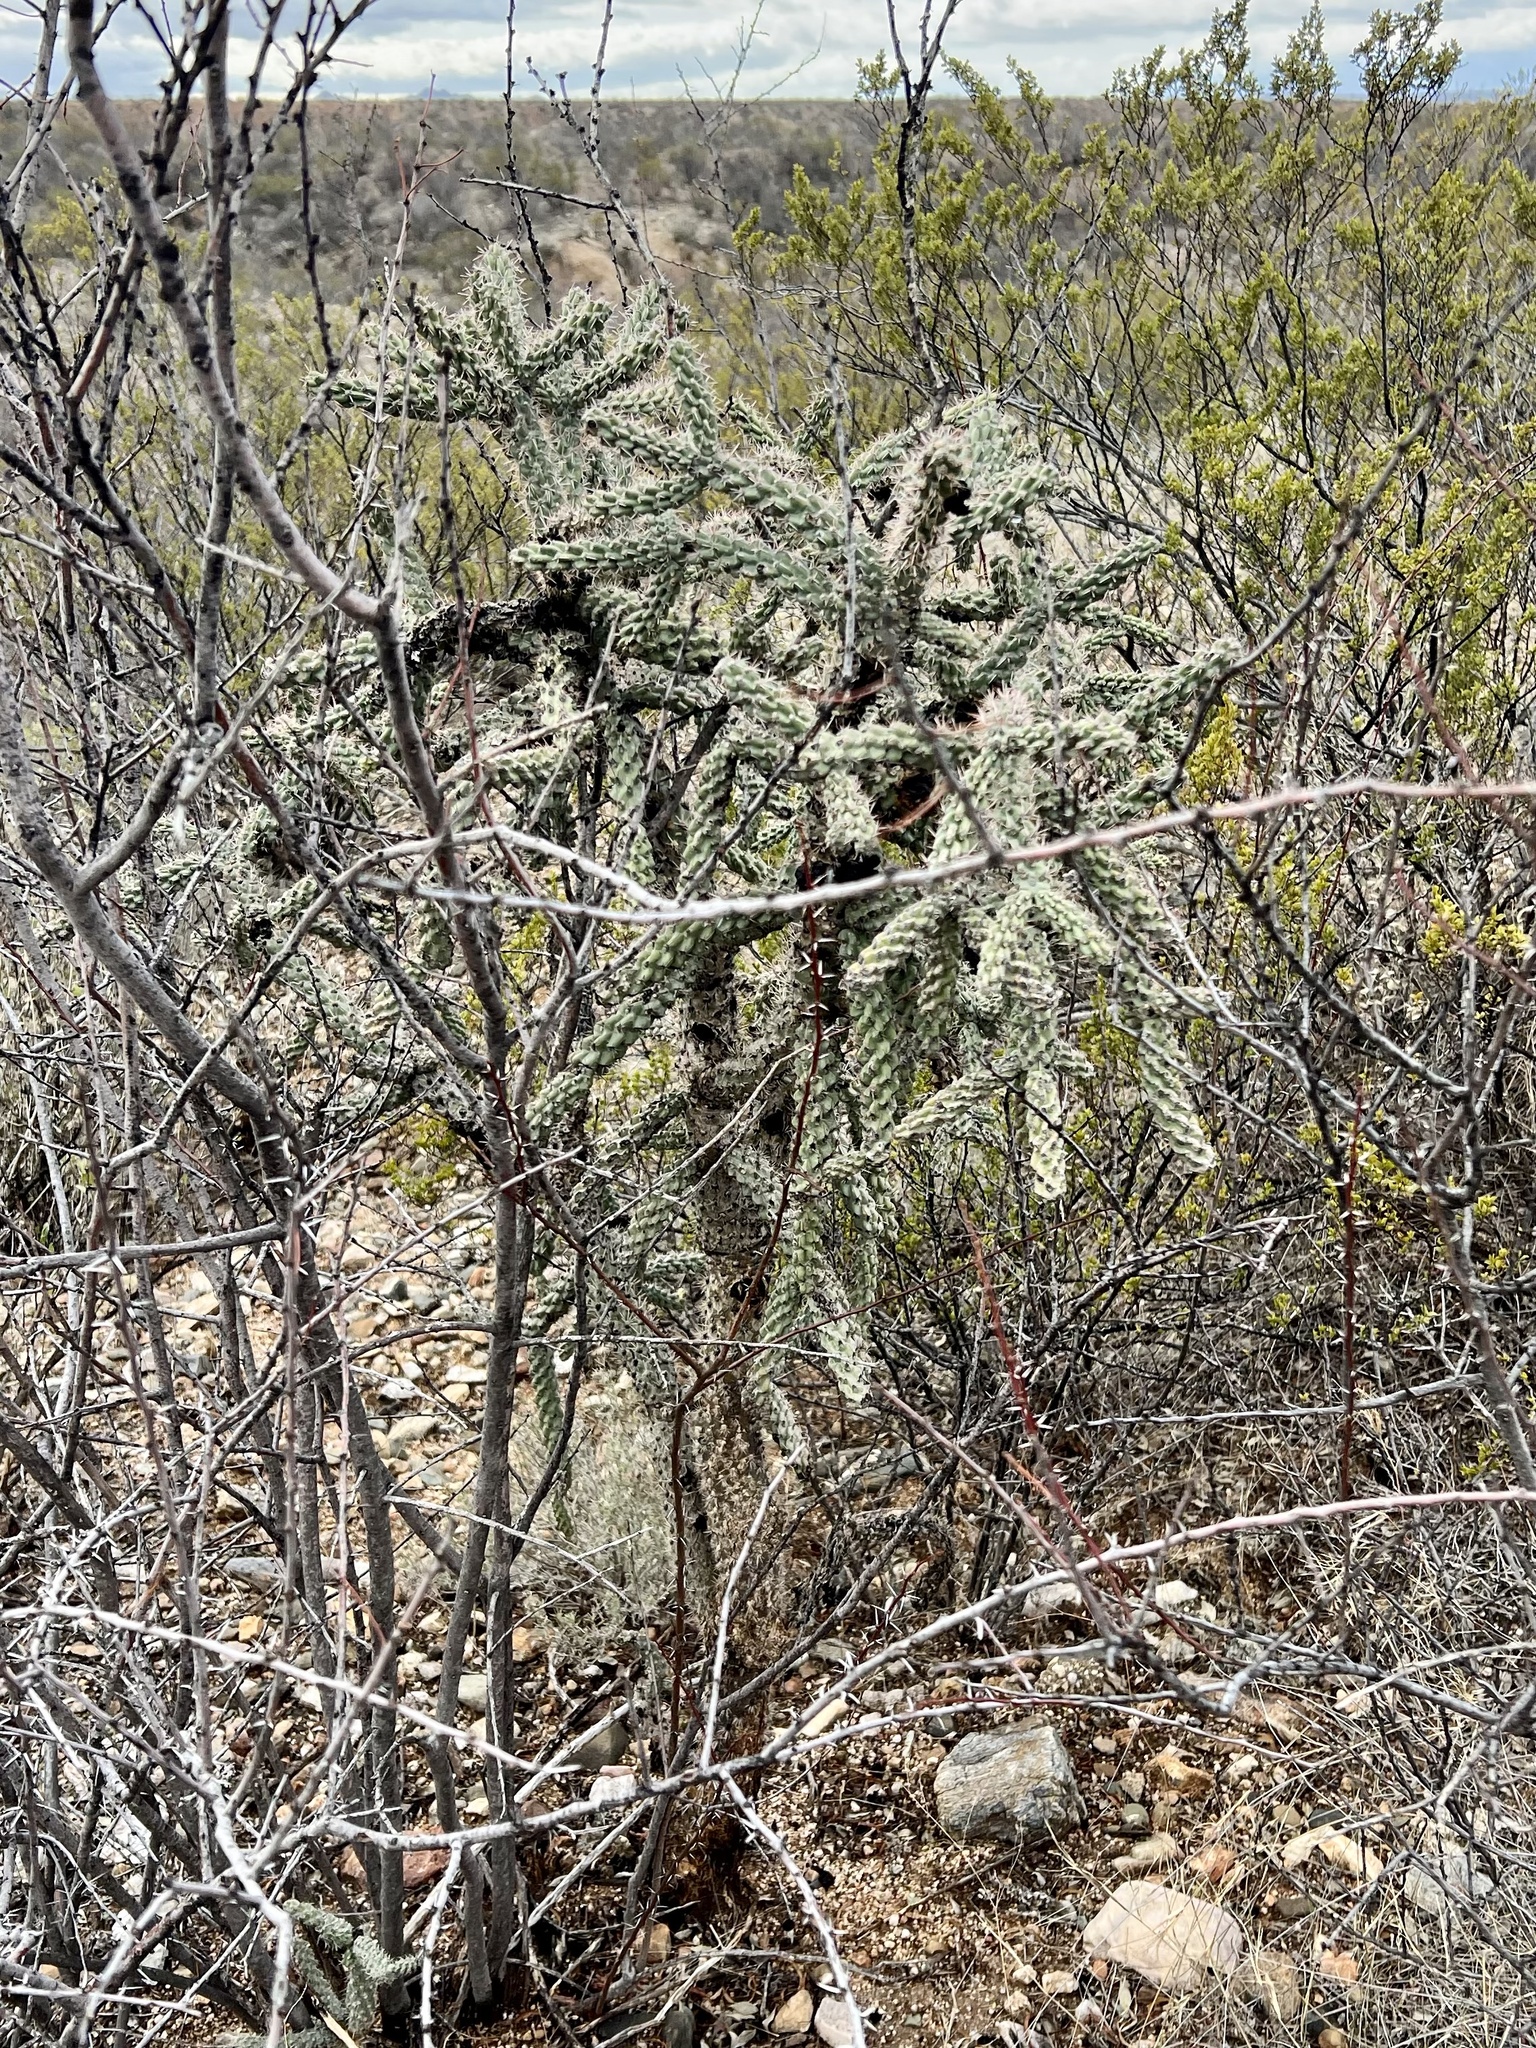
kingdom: Plantae
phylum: Tracheophyta
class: Magnoliopsida
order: Caryophyllales
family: Cactaceae
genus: Cylindropuntia
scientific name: Cylindropuntia imbricata
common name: Candelabrum cactus
